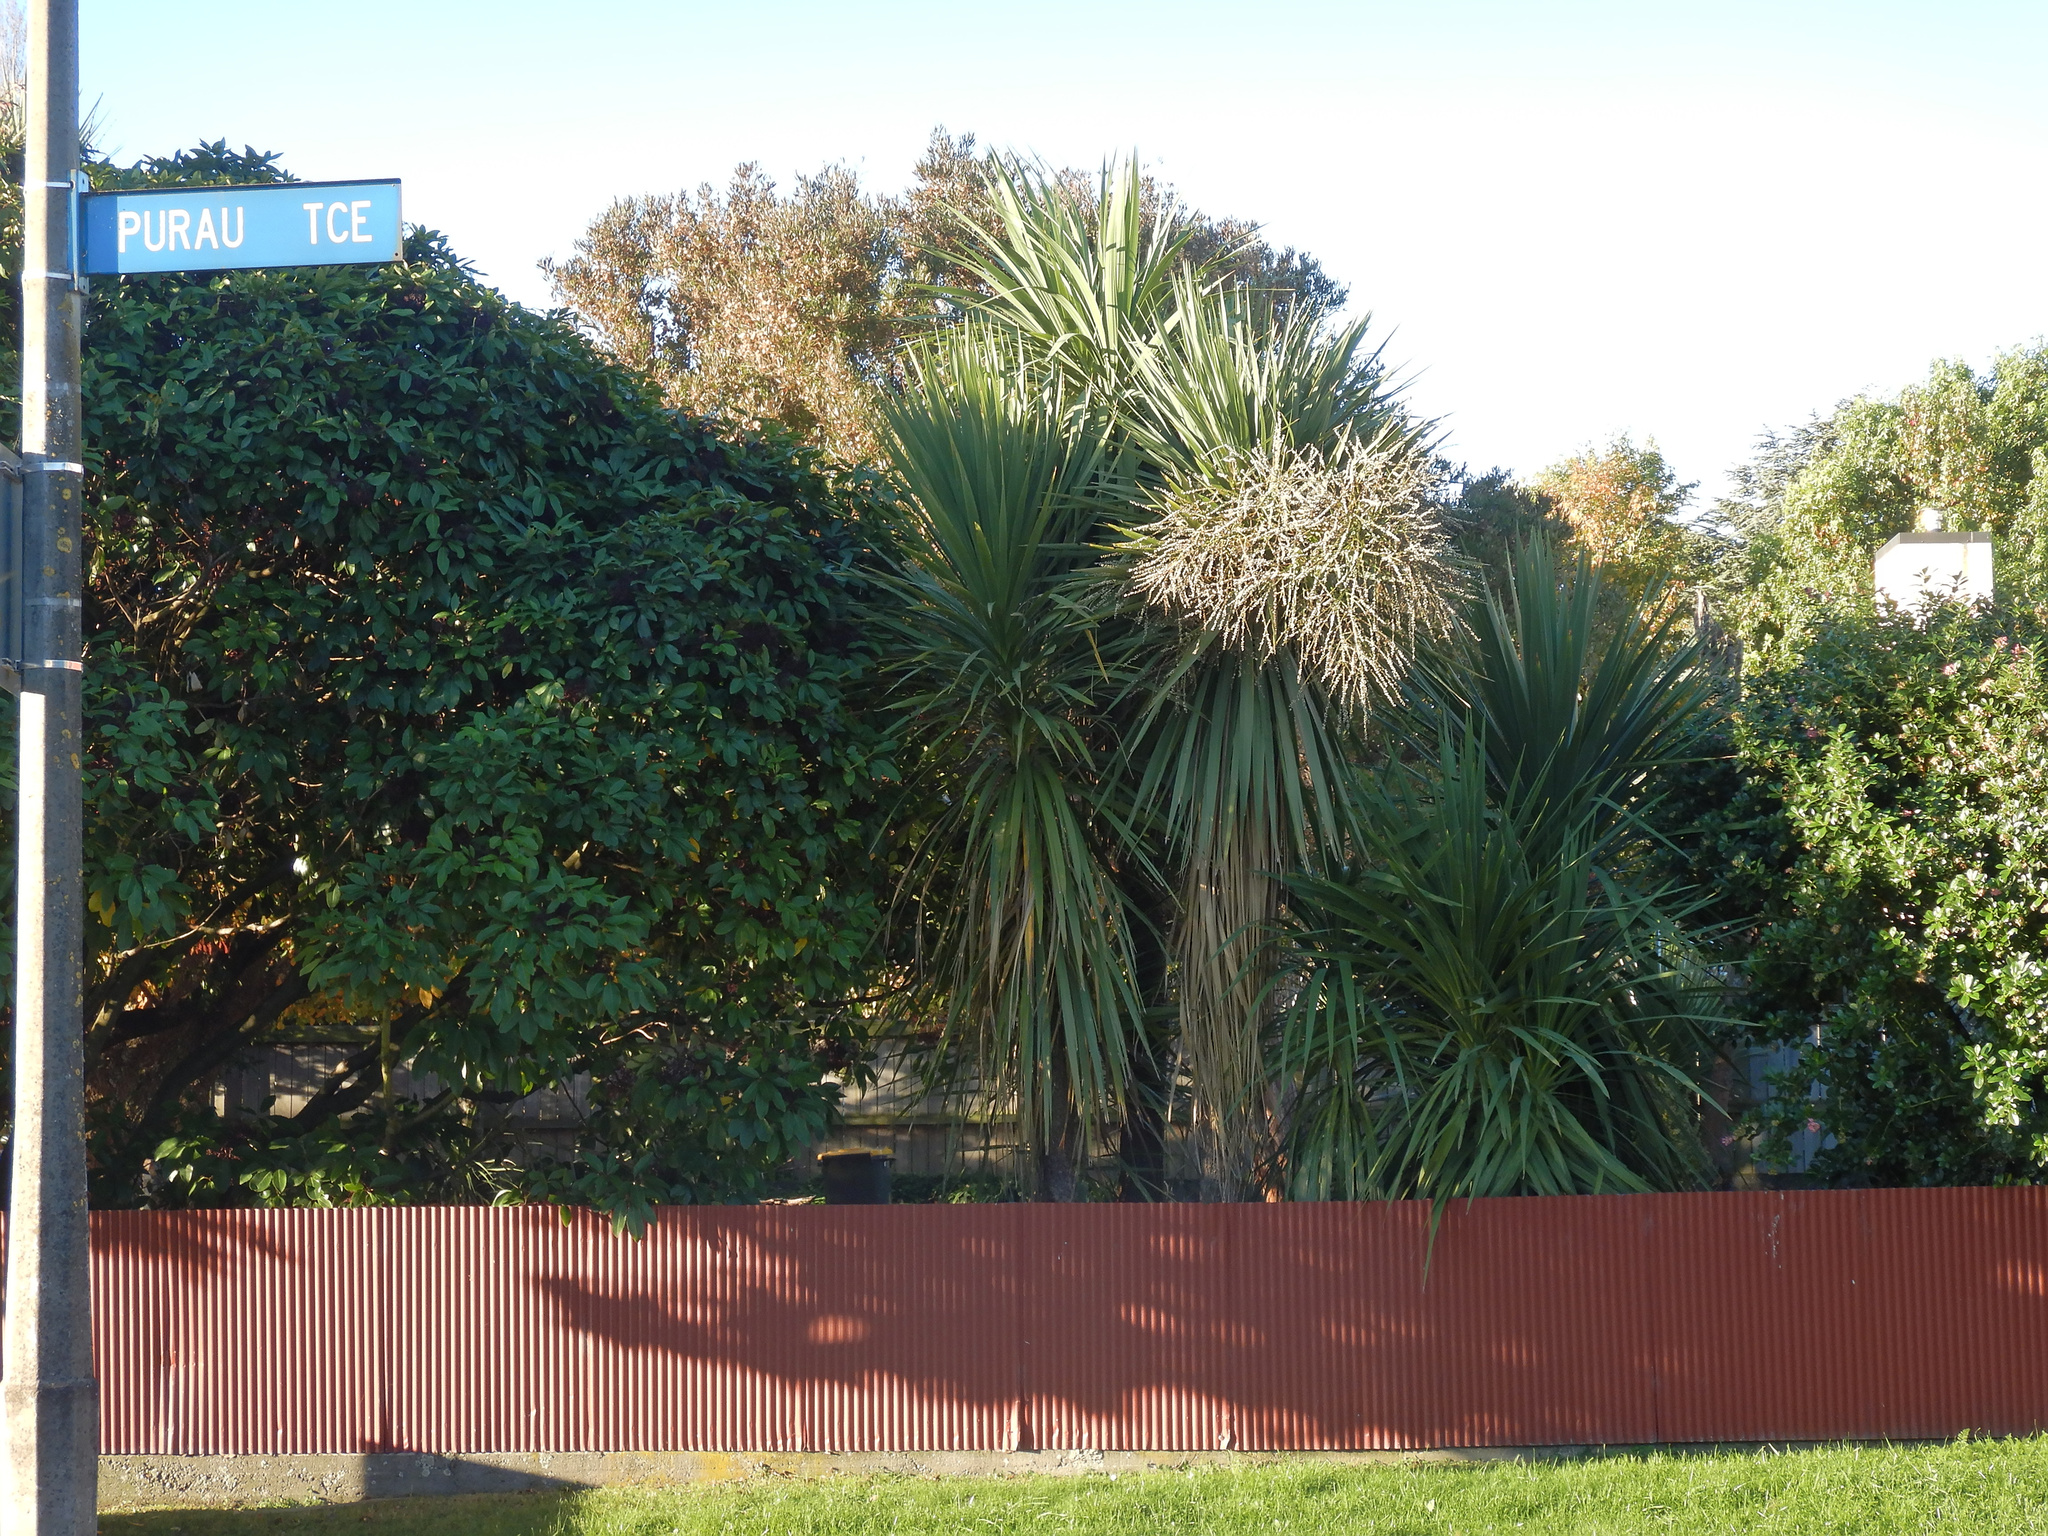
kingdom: Plantae
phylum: Tracheophyta
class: Liliopsida
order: Asparagales
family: Asparagaceae
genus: Cordyline
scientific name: Cordyline australis
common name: Cabbage-palm
